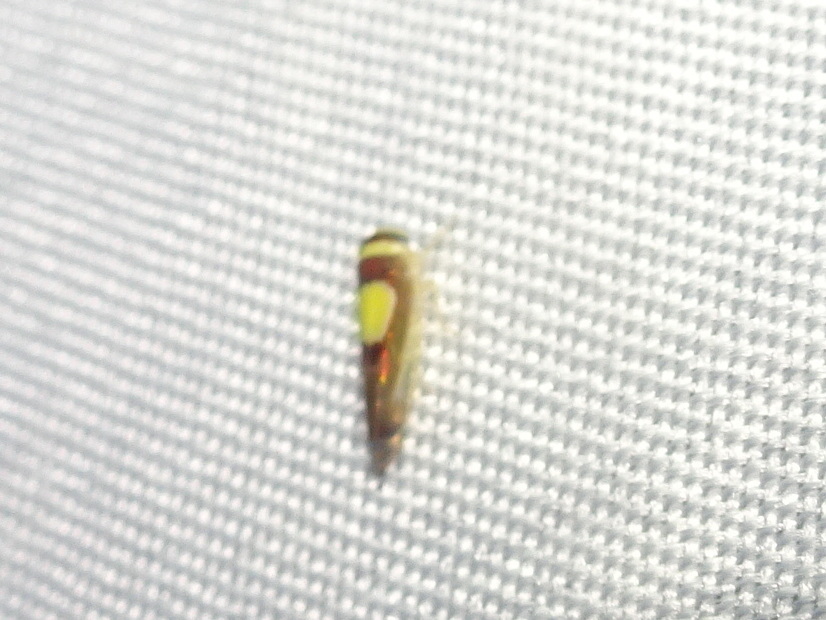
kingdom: Animalia
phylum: Arthropoda
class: Insecta
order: Hemiptera
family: Cicadellidae
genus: Colladonus
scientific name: Colladonus clitellarius
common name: The saddleback leafhopper
